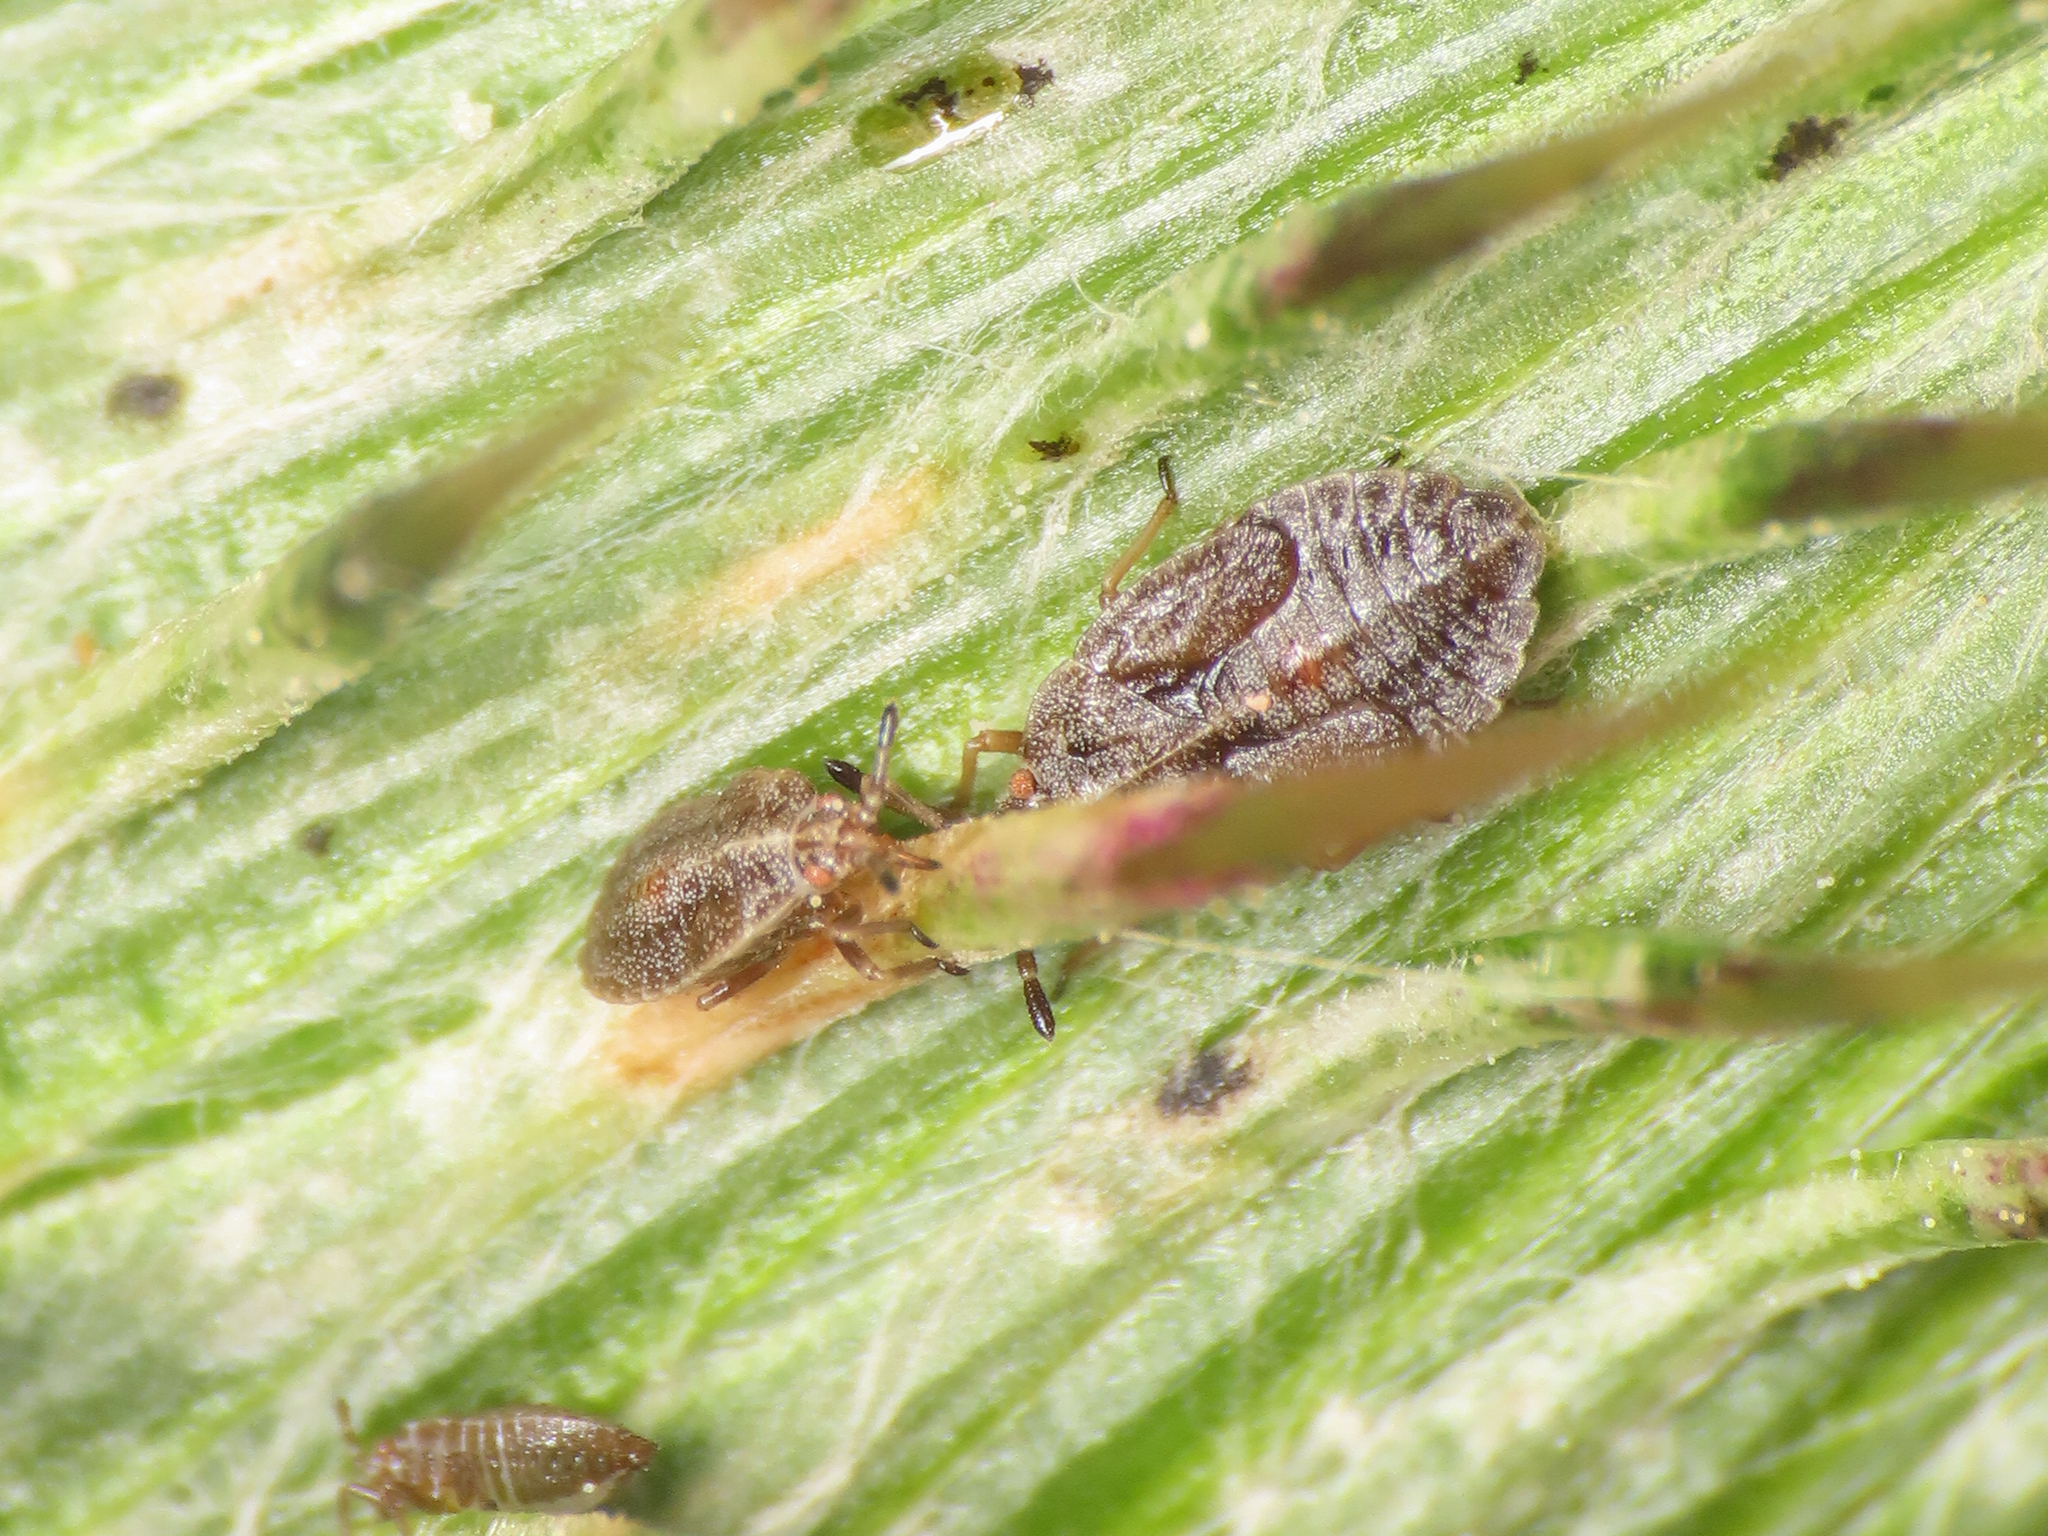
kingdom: Animalia
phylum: Arthropoda
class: Insecta
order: Hemiptera
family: Tingidae
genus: Tingis
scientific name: Tingis cardui
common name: Spear thistle lacebug
